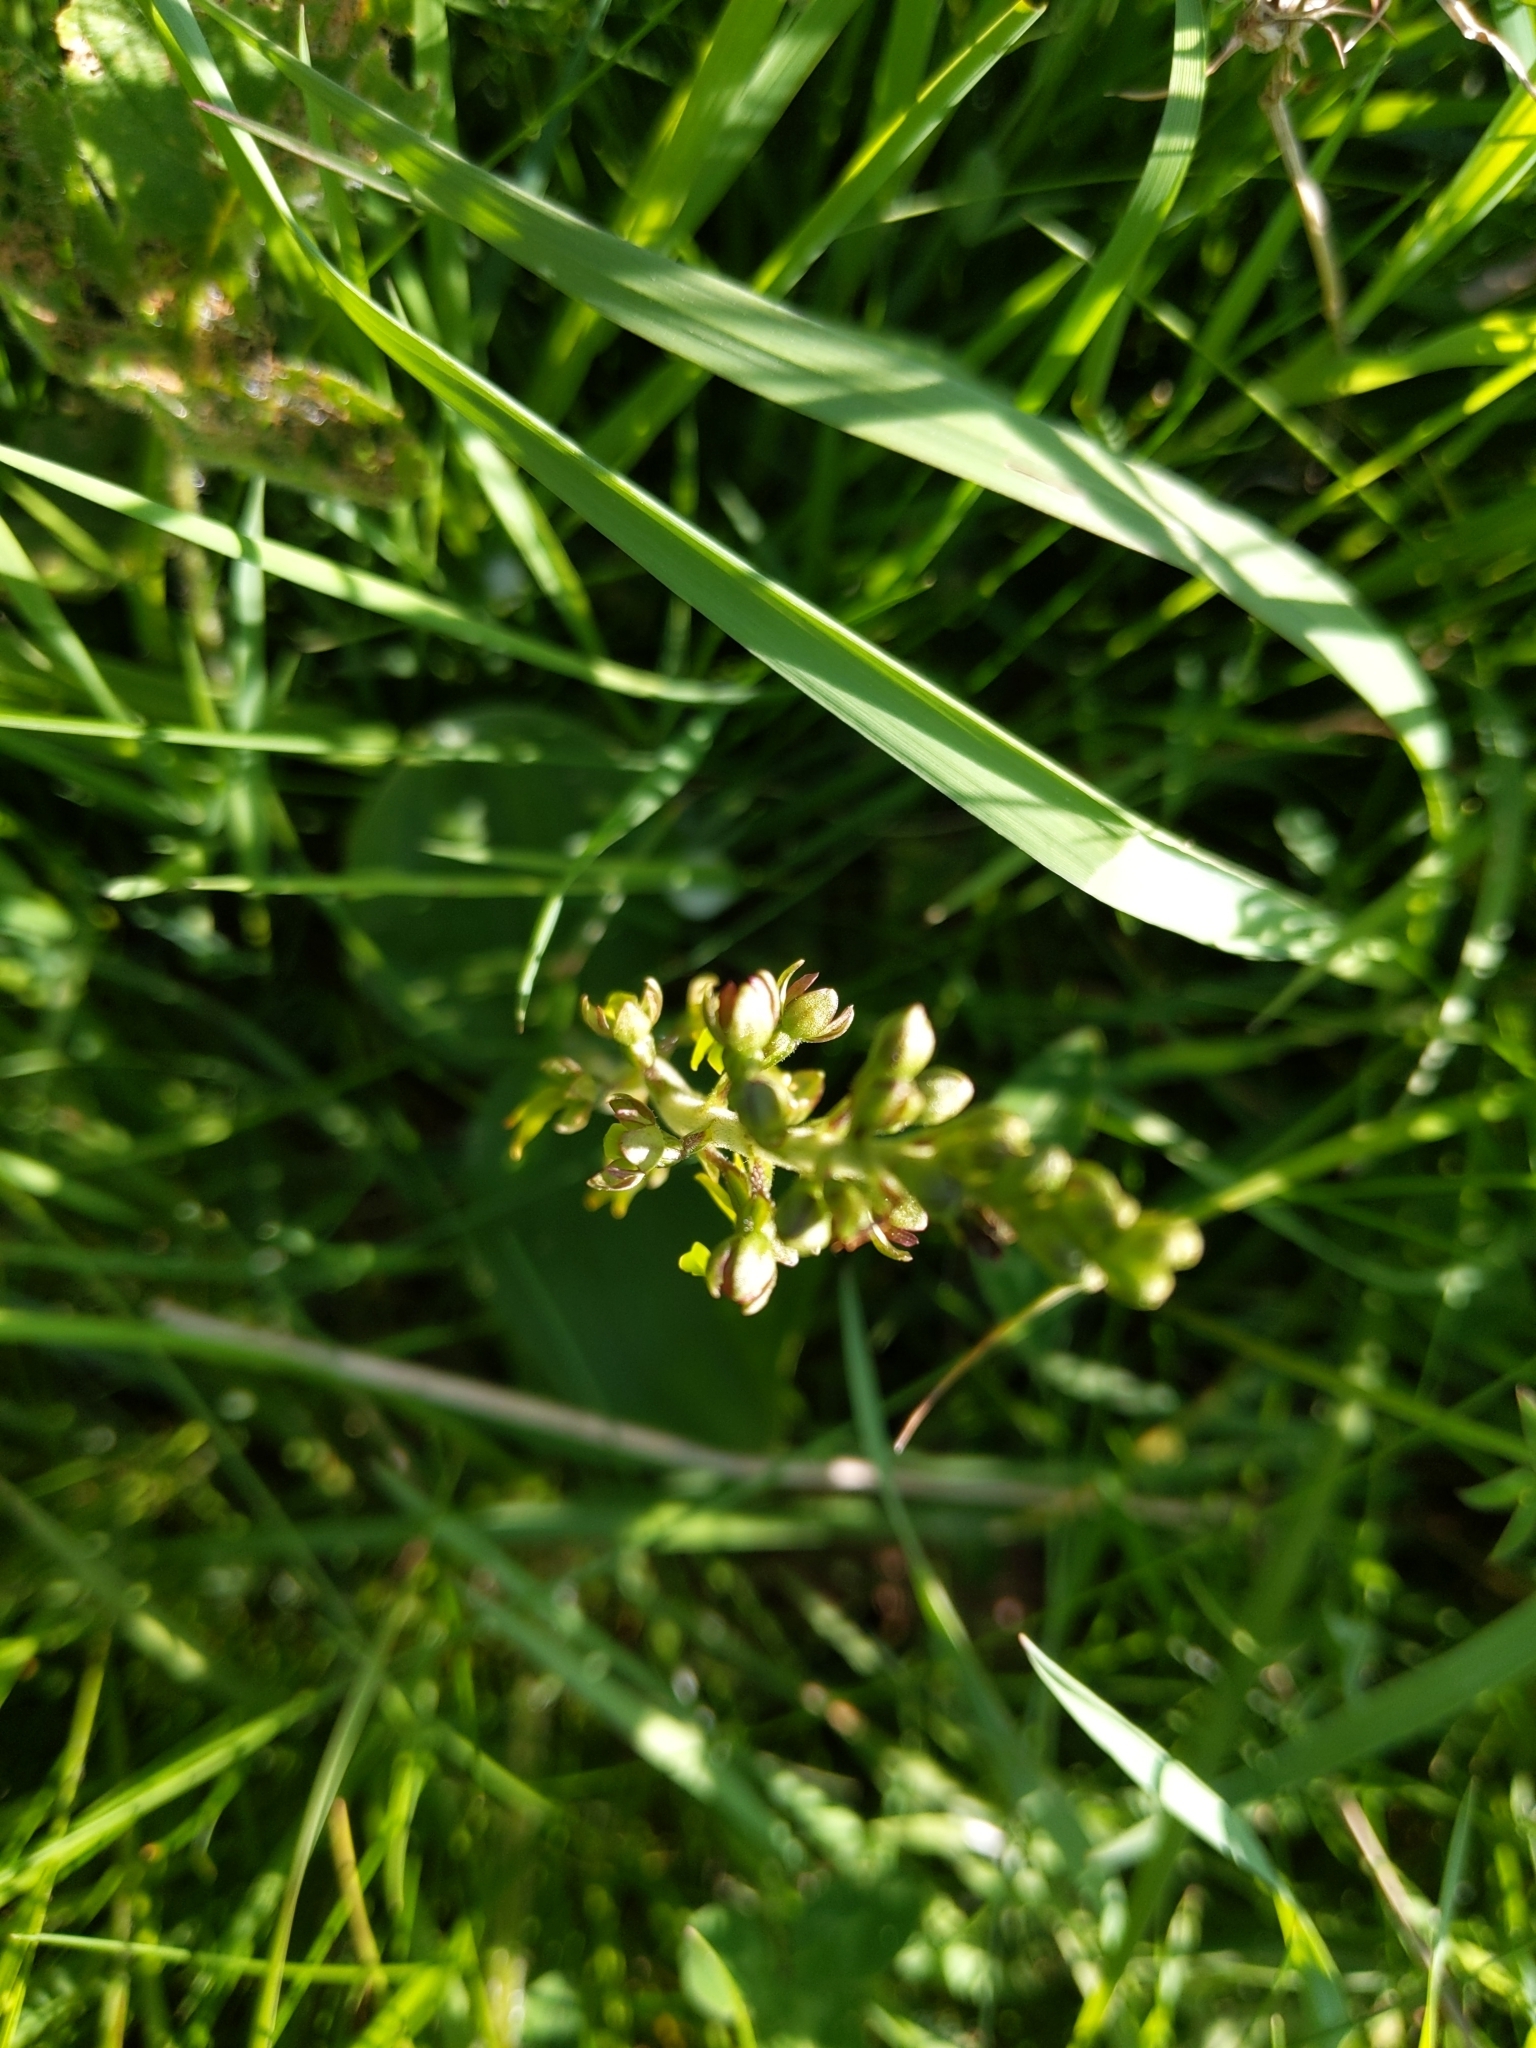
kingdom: Plantae
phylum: Tracheophyta
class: Liliopsida
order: Asparagales
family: Orchidaceae
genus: Neottia
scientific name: Neottia ovata
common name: Common twayblade
